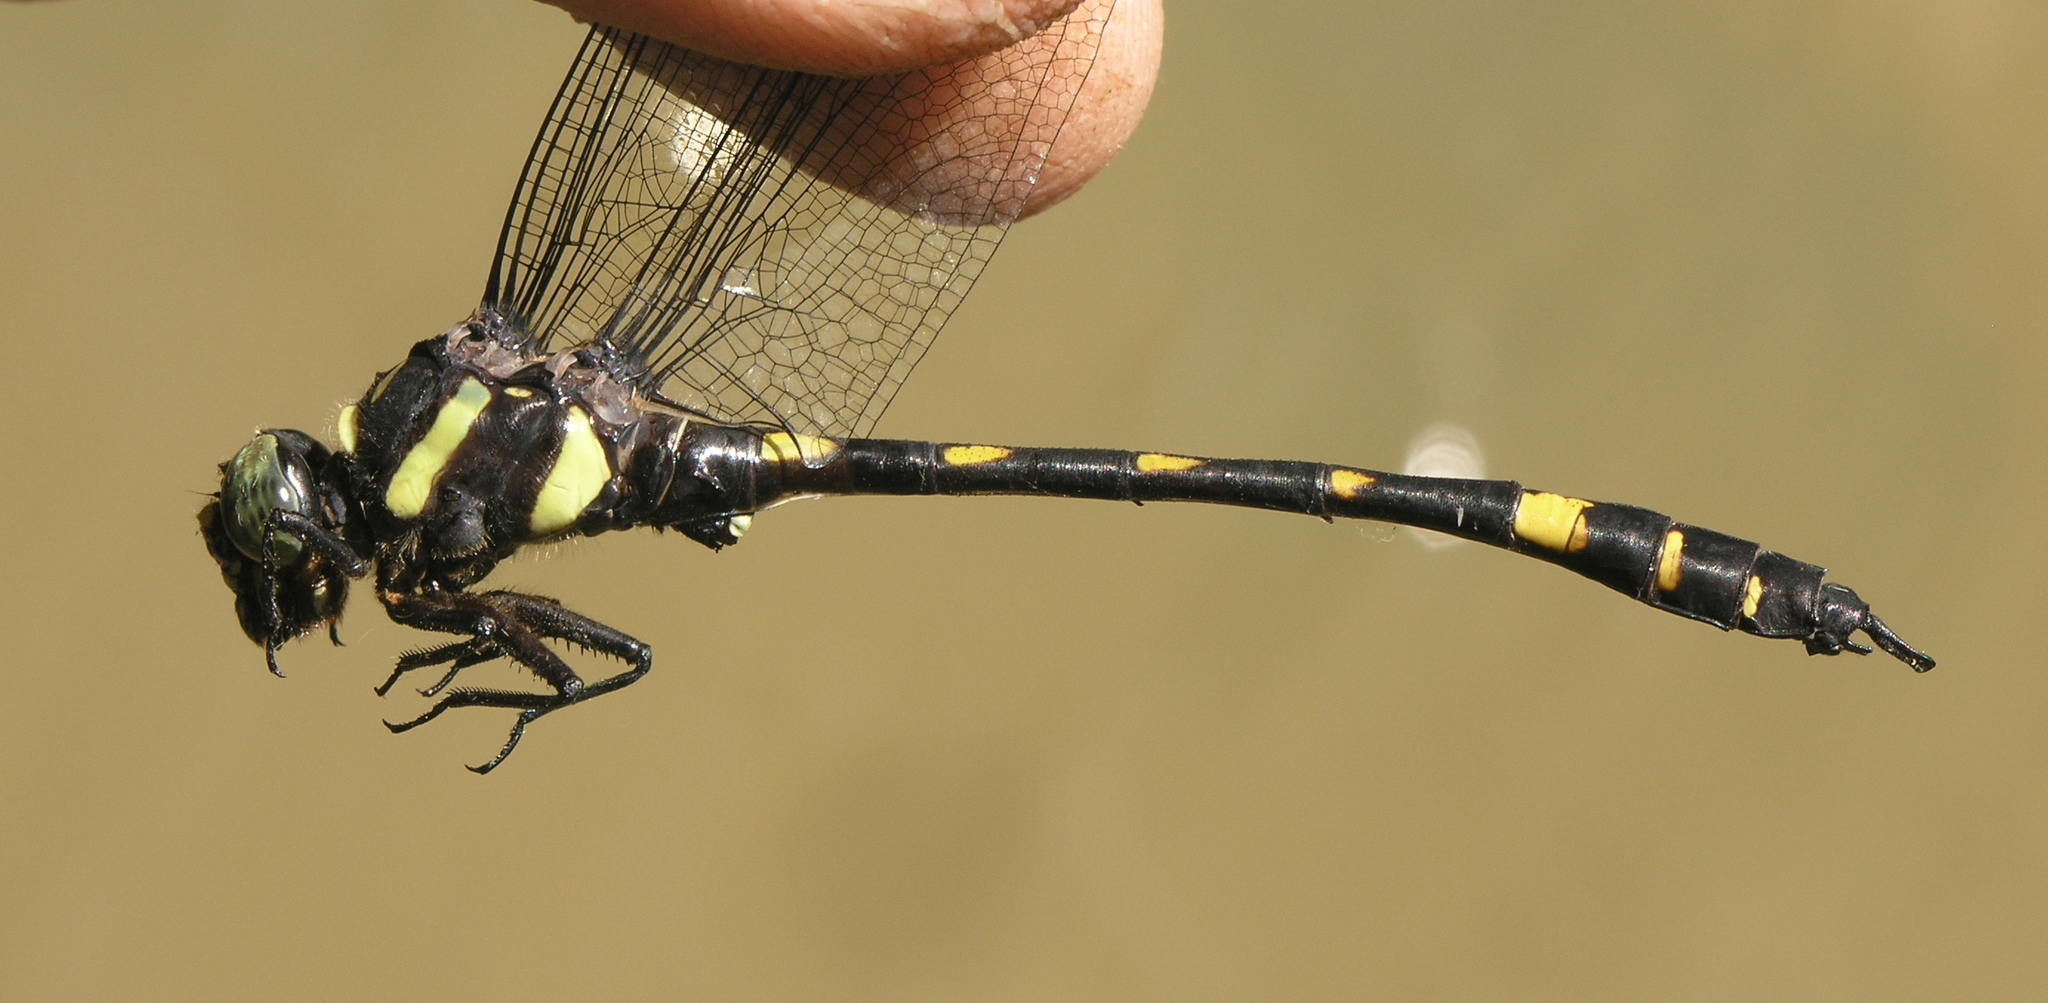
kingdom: Animalia
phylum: Arthropoda
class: Insecta
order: Odonata
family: Gomphidae
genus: Gomphidia
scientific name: Gomphidia abbotti
